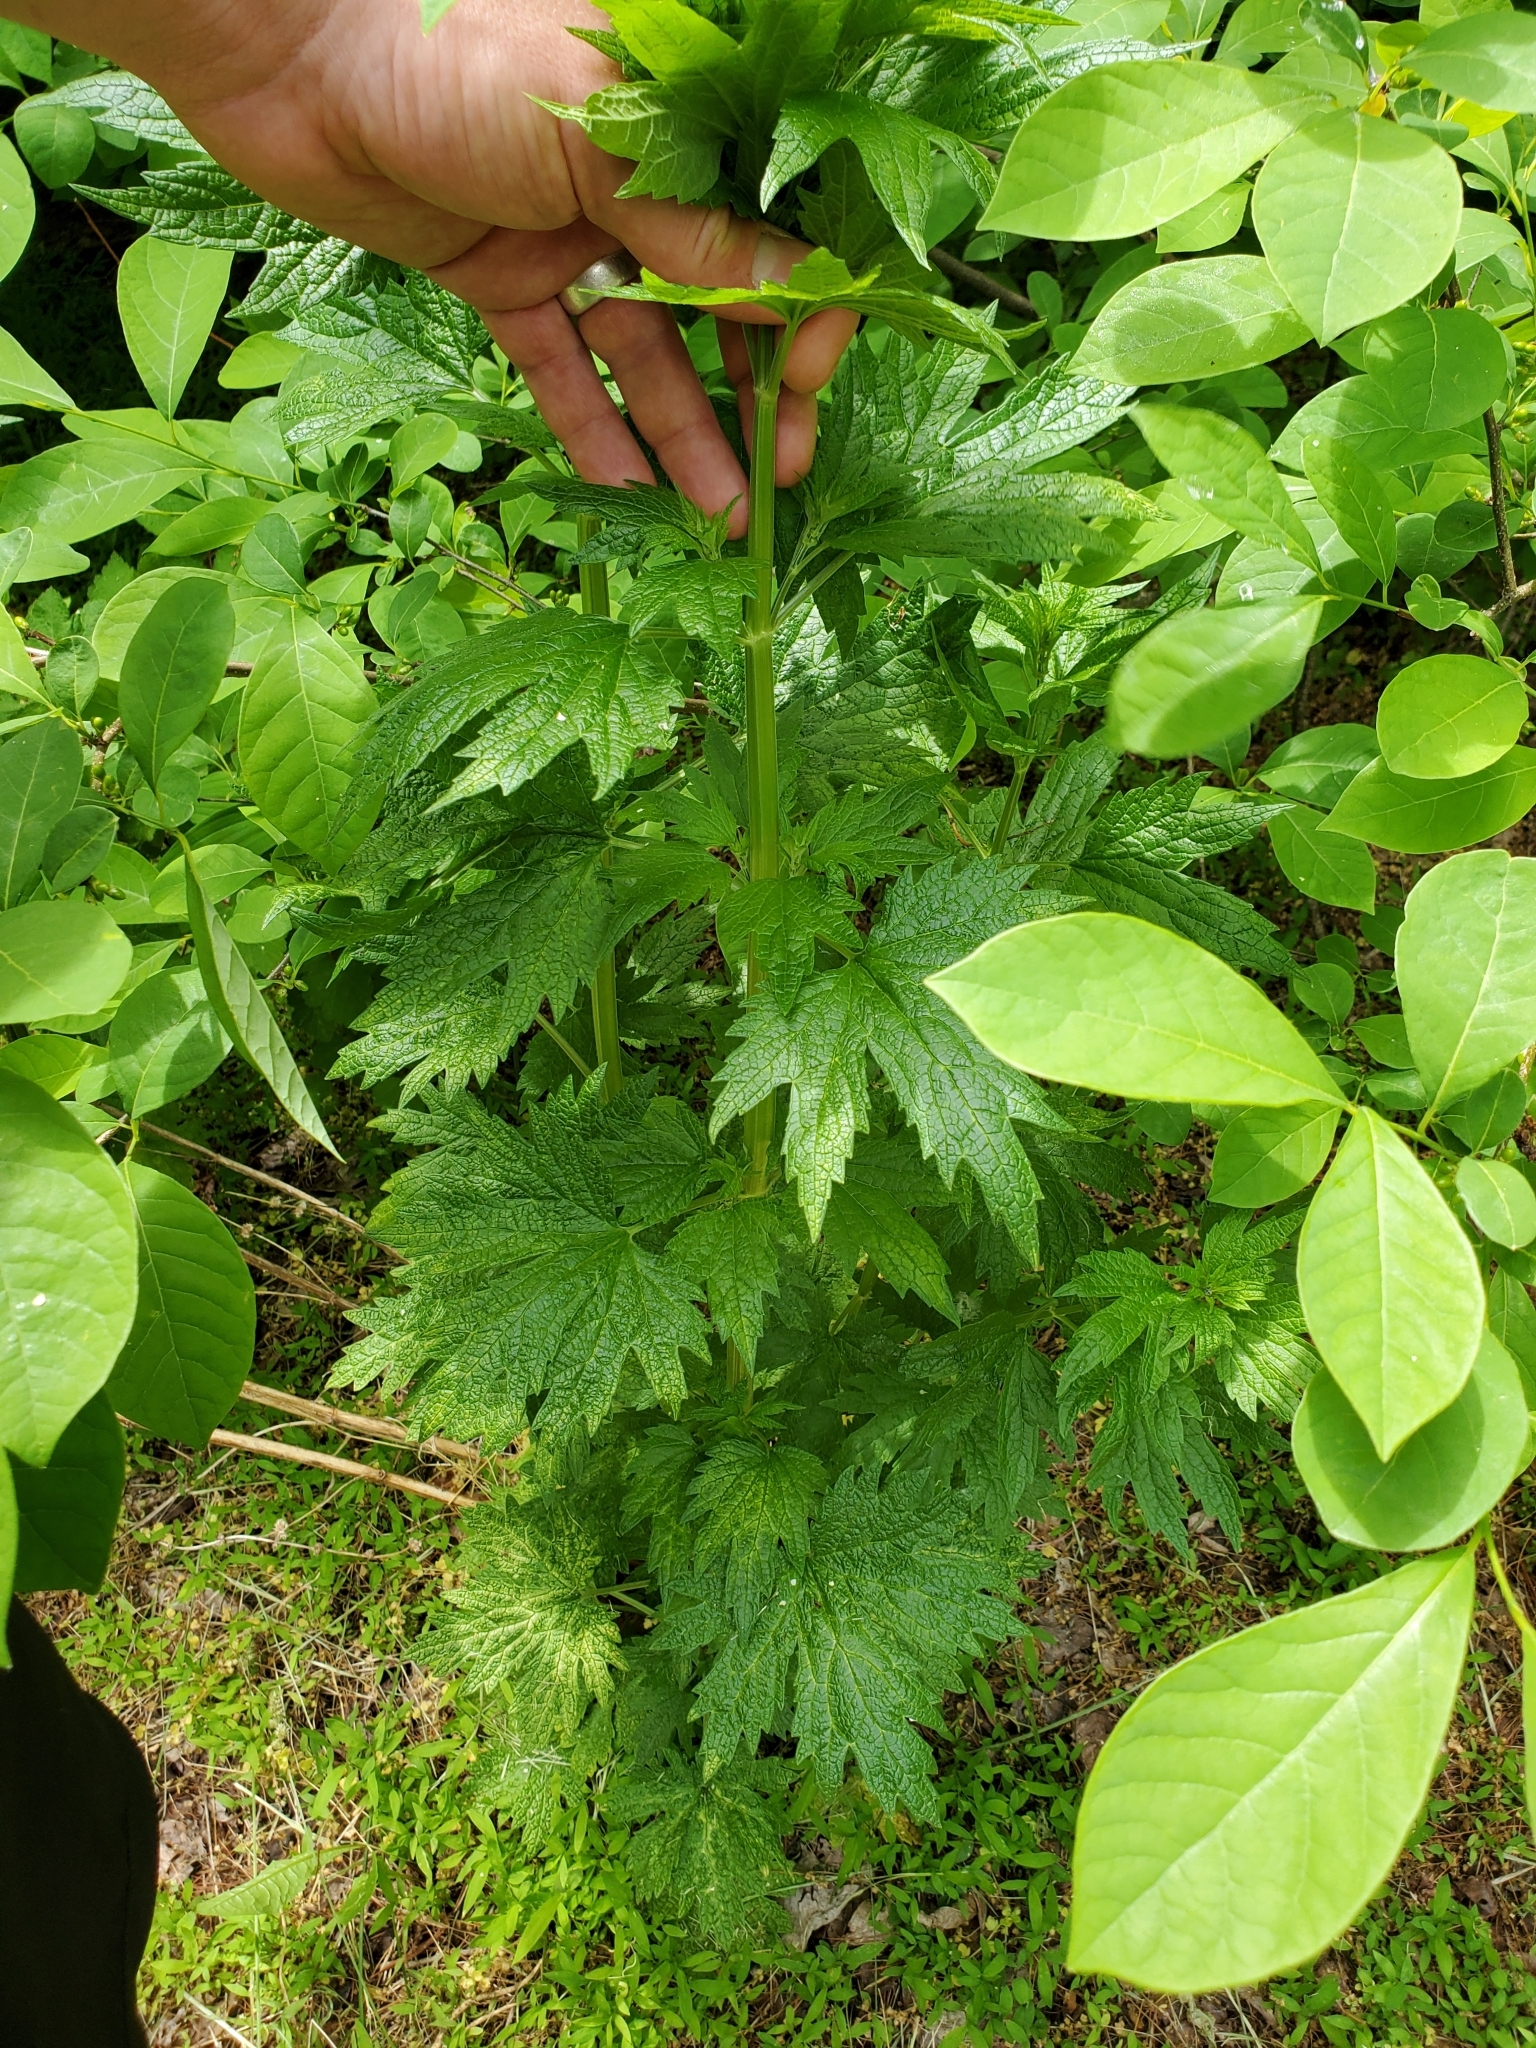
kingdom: Plantae
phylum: Tracheophyta
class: Magnoliopsida
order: Lamiales
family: Lamiaceae
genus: Leonurus
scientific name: Leonurus cardiaca
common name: Motherwort
